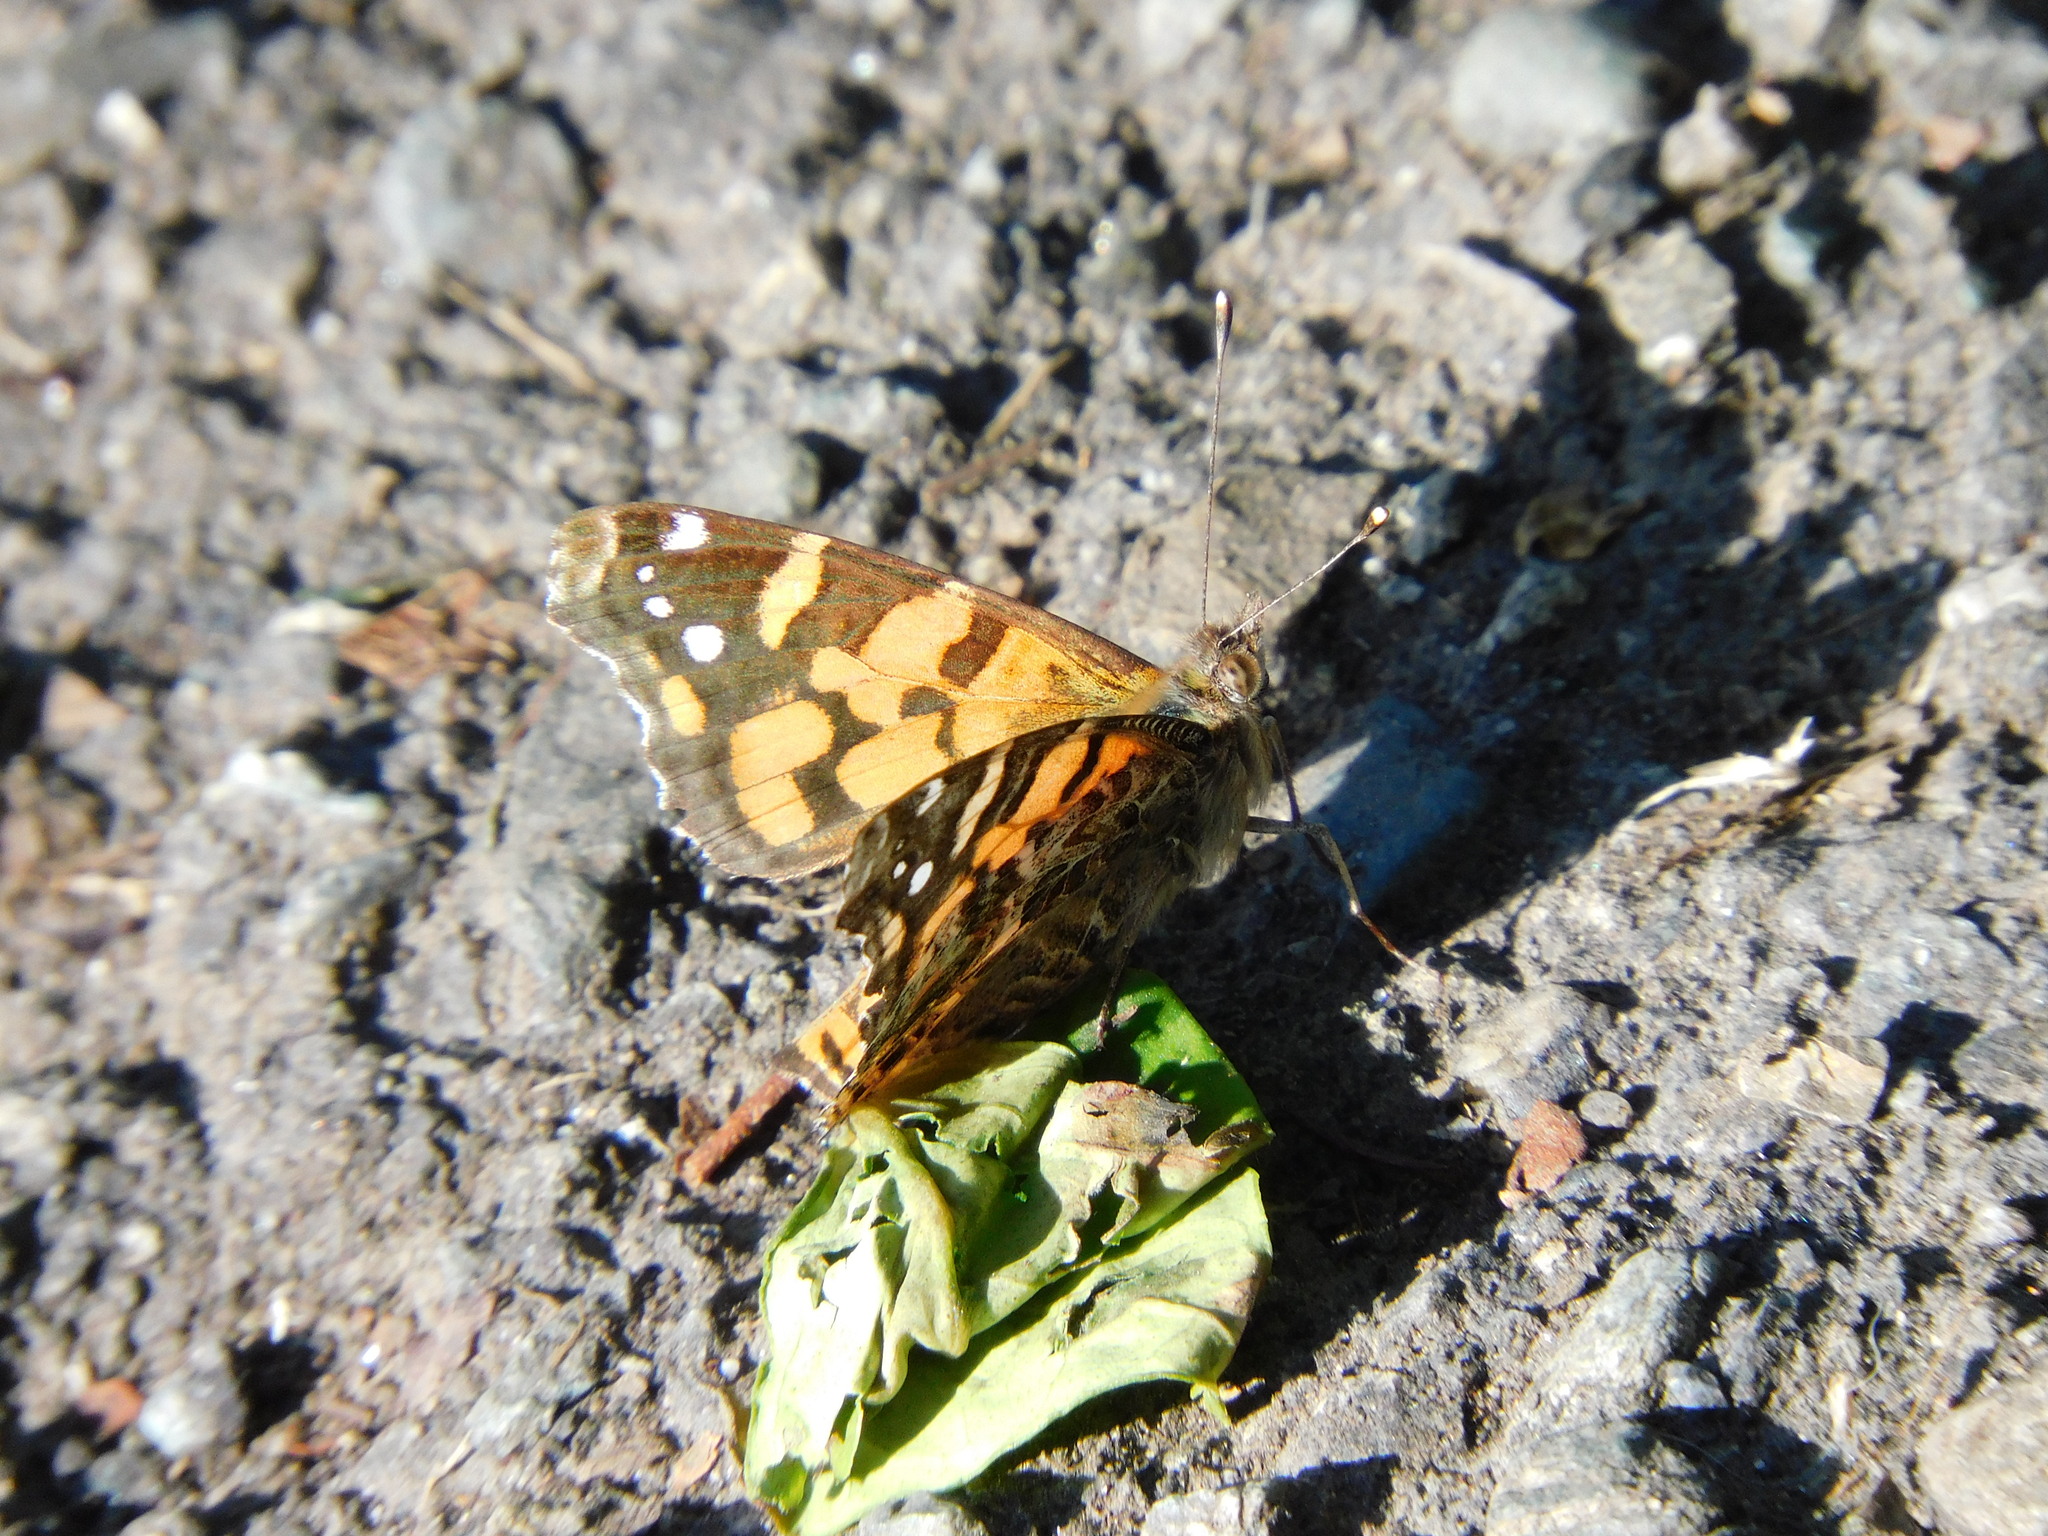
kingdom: Animalia
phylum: Arthropoda
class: Insecta
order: Lepidoptera
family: Nymphalidae
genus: Vanessa
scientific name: Vanessa carye
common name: Subtropical lady
